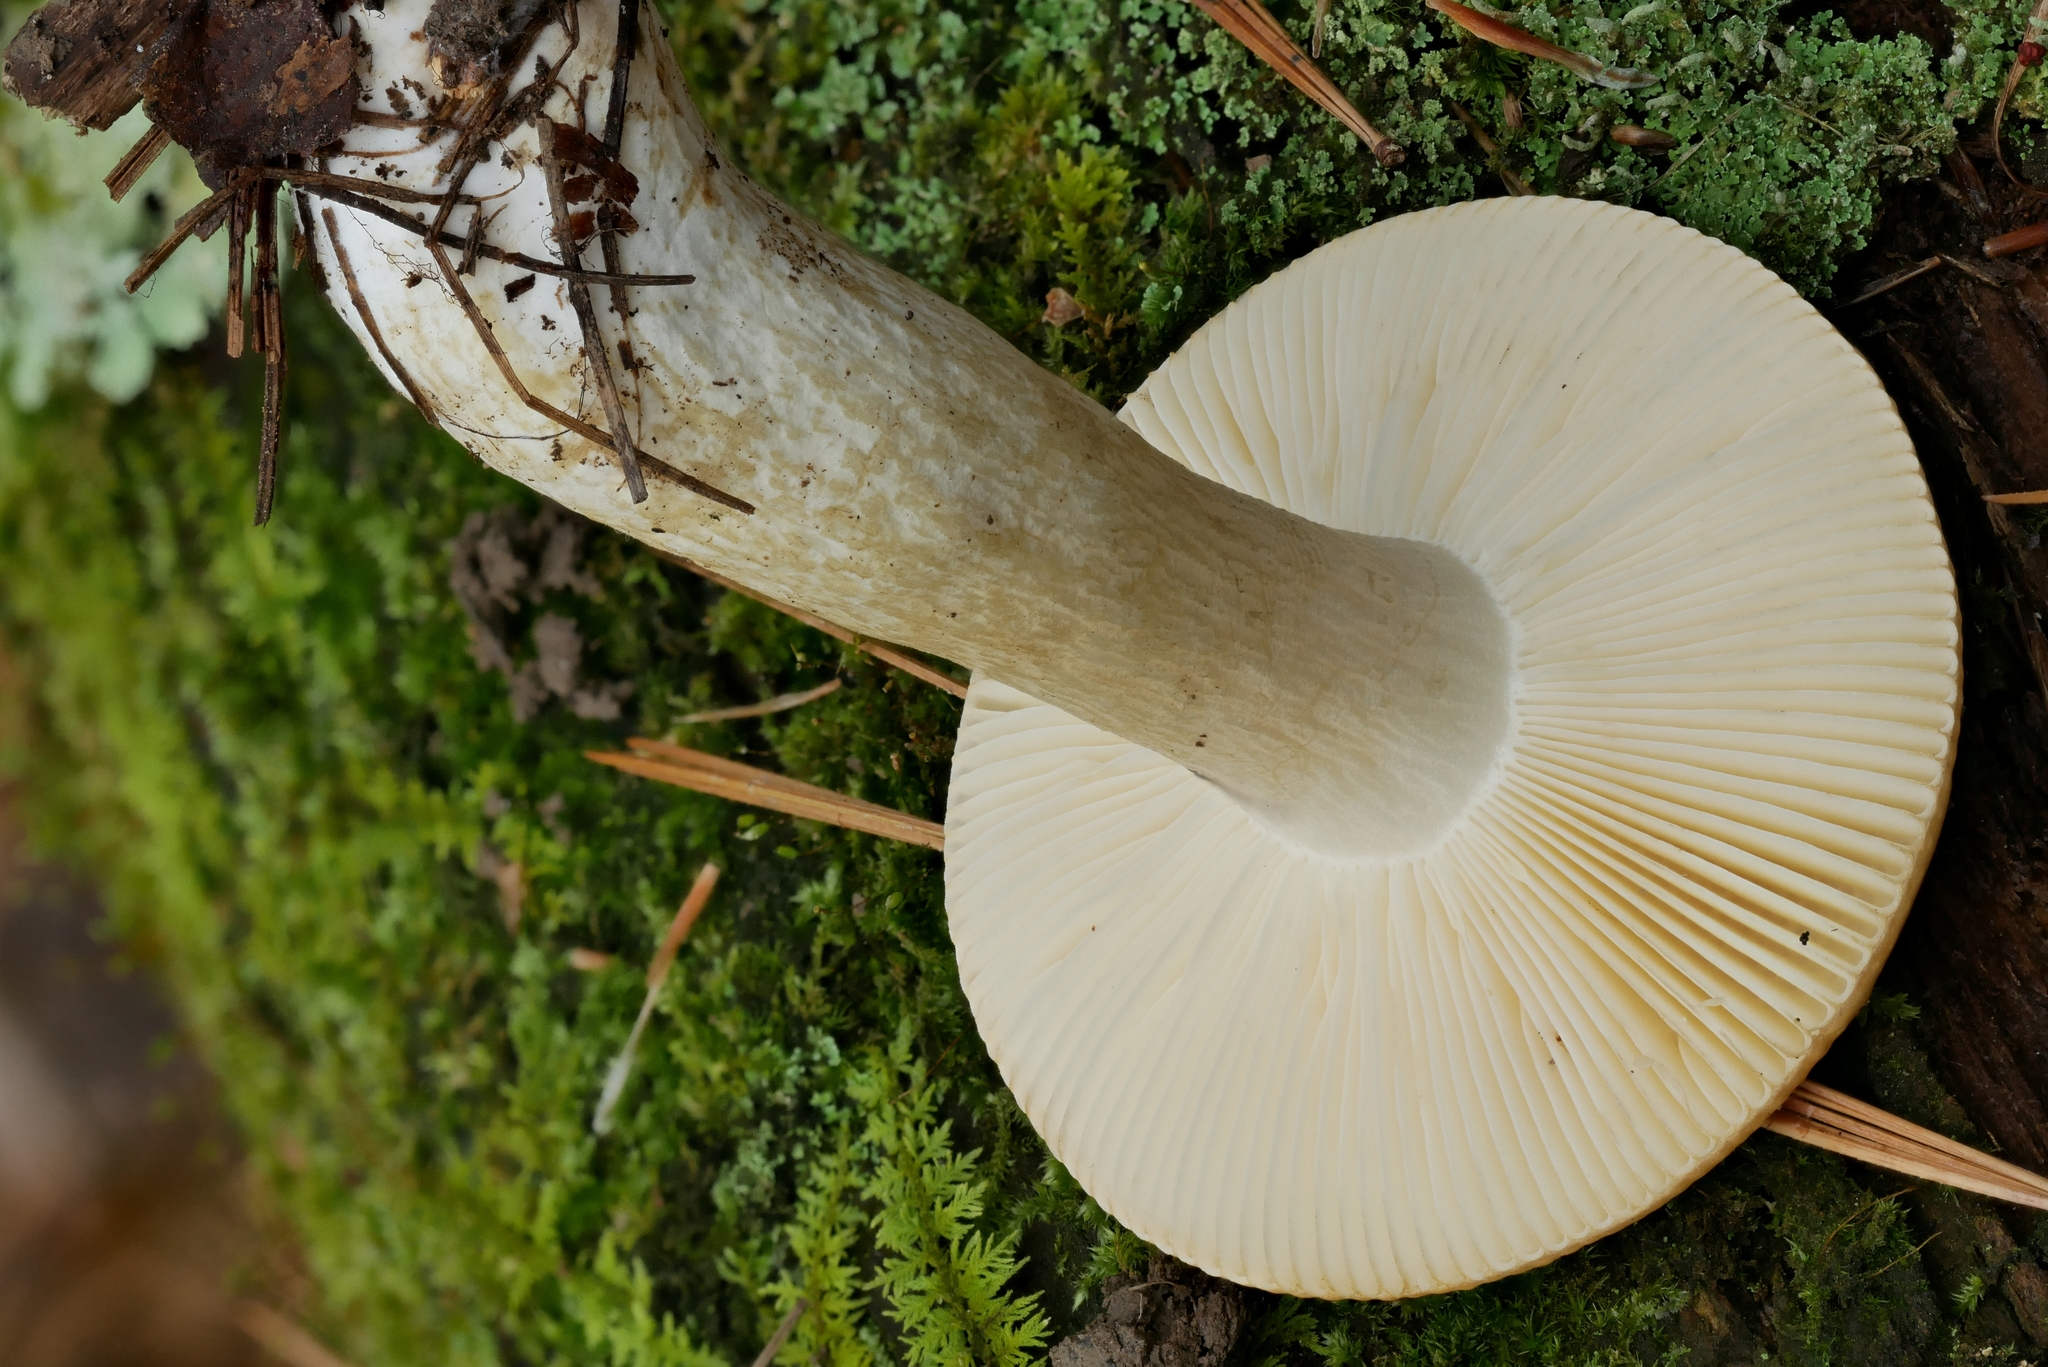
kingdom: Fungi
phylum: Basidiomycota
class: Agaricomycetes
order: Russulales
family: Russulaceae
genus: Russula
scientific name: Russula katarinae
